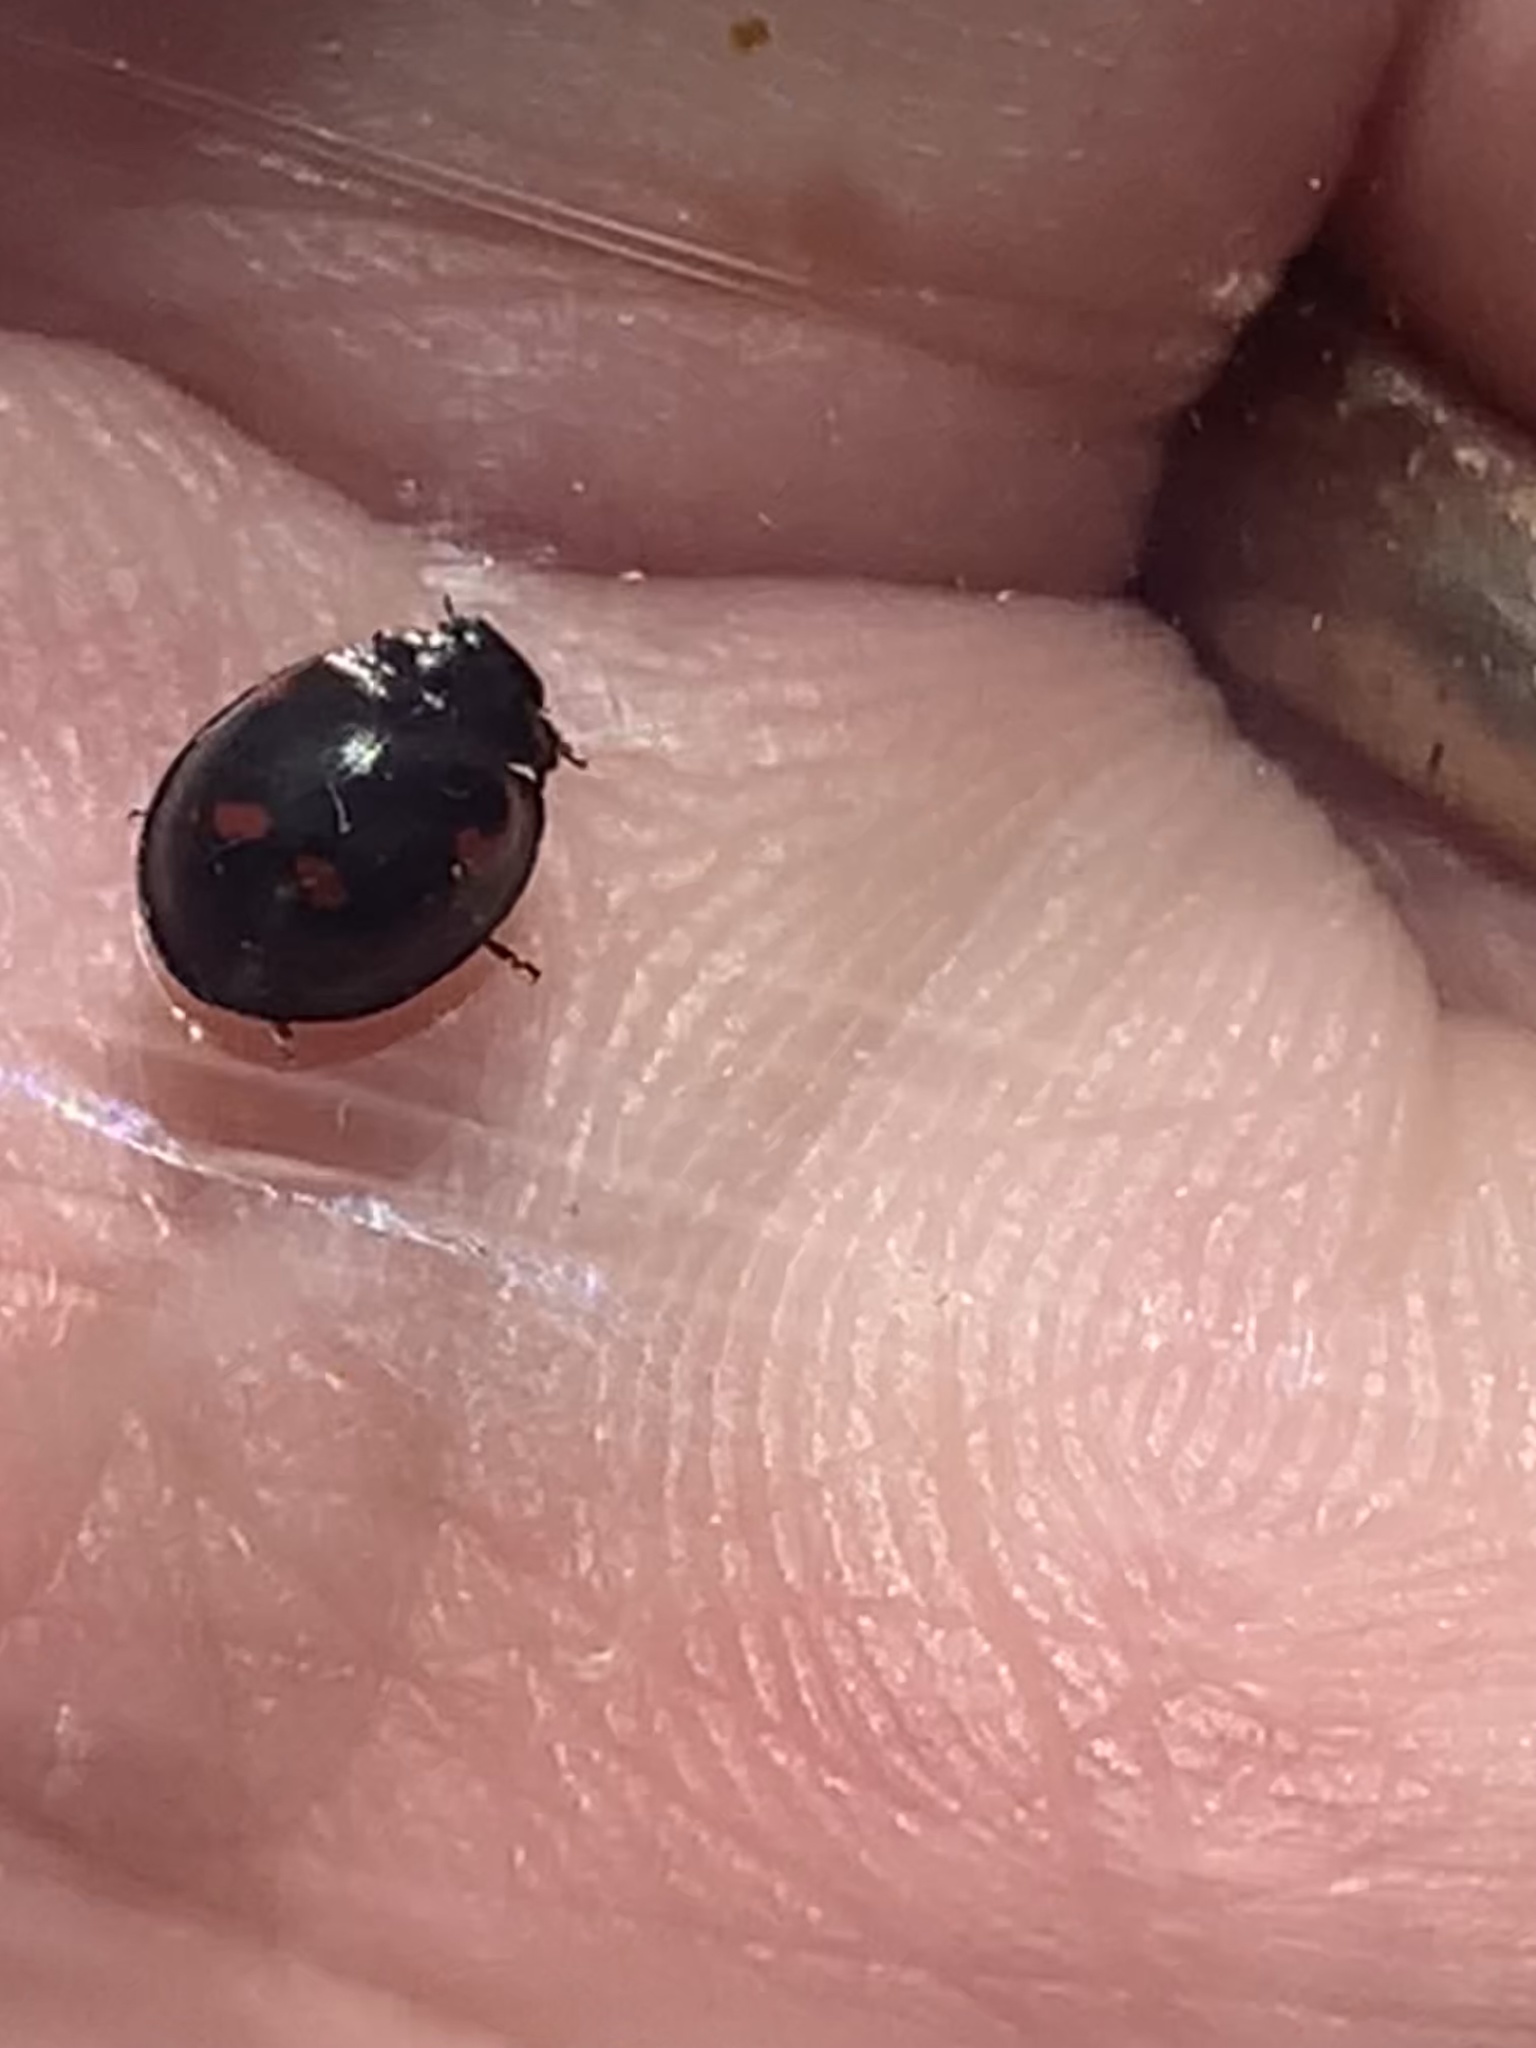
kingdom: Animalia
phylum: Arthropoda
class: Insecta
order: Coleoptera
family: Coccinellidae
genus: Brumus
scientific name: Brumus quadripustulatus
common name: Ladybird beetle
